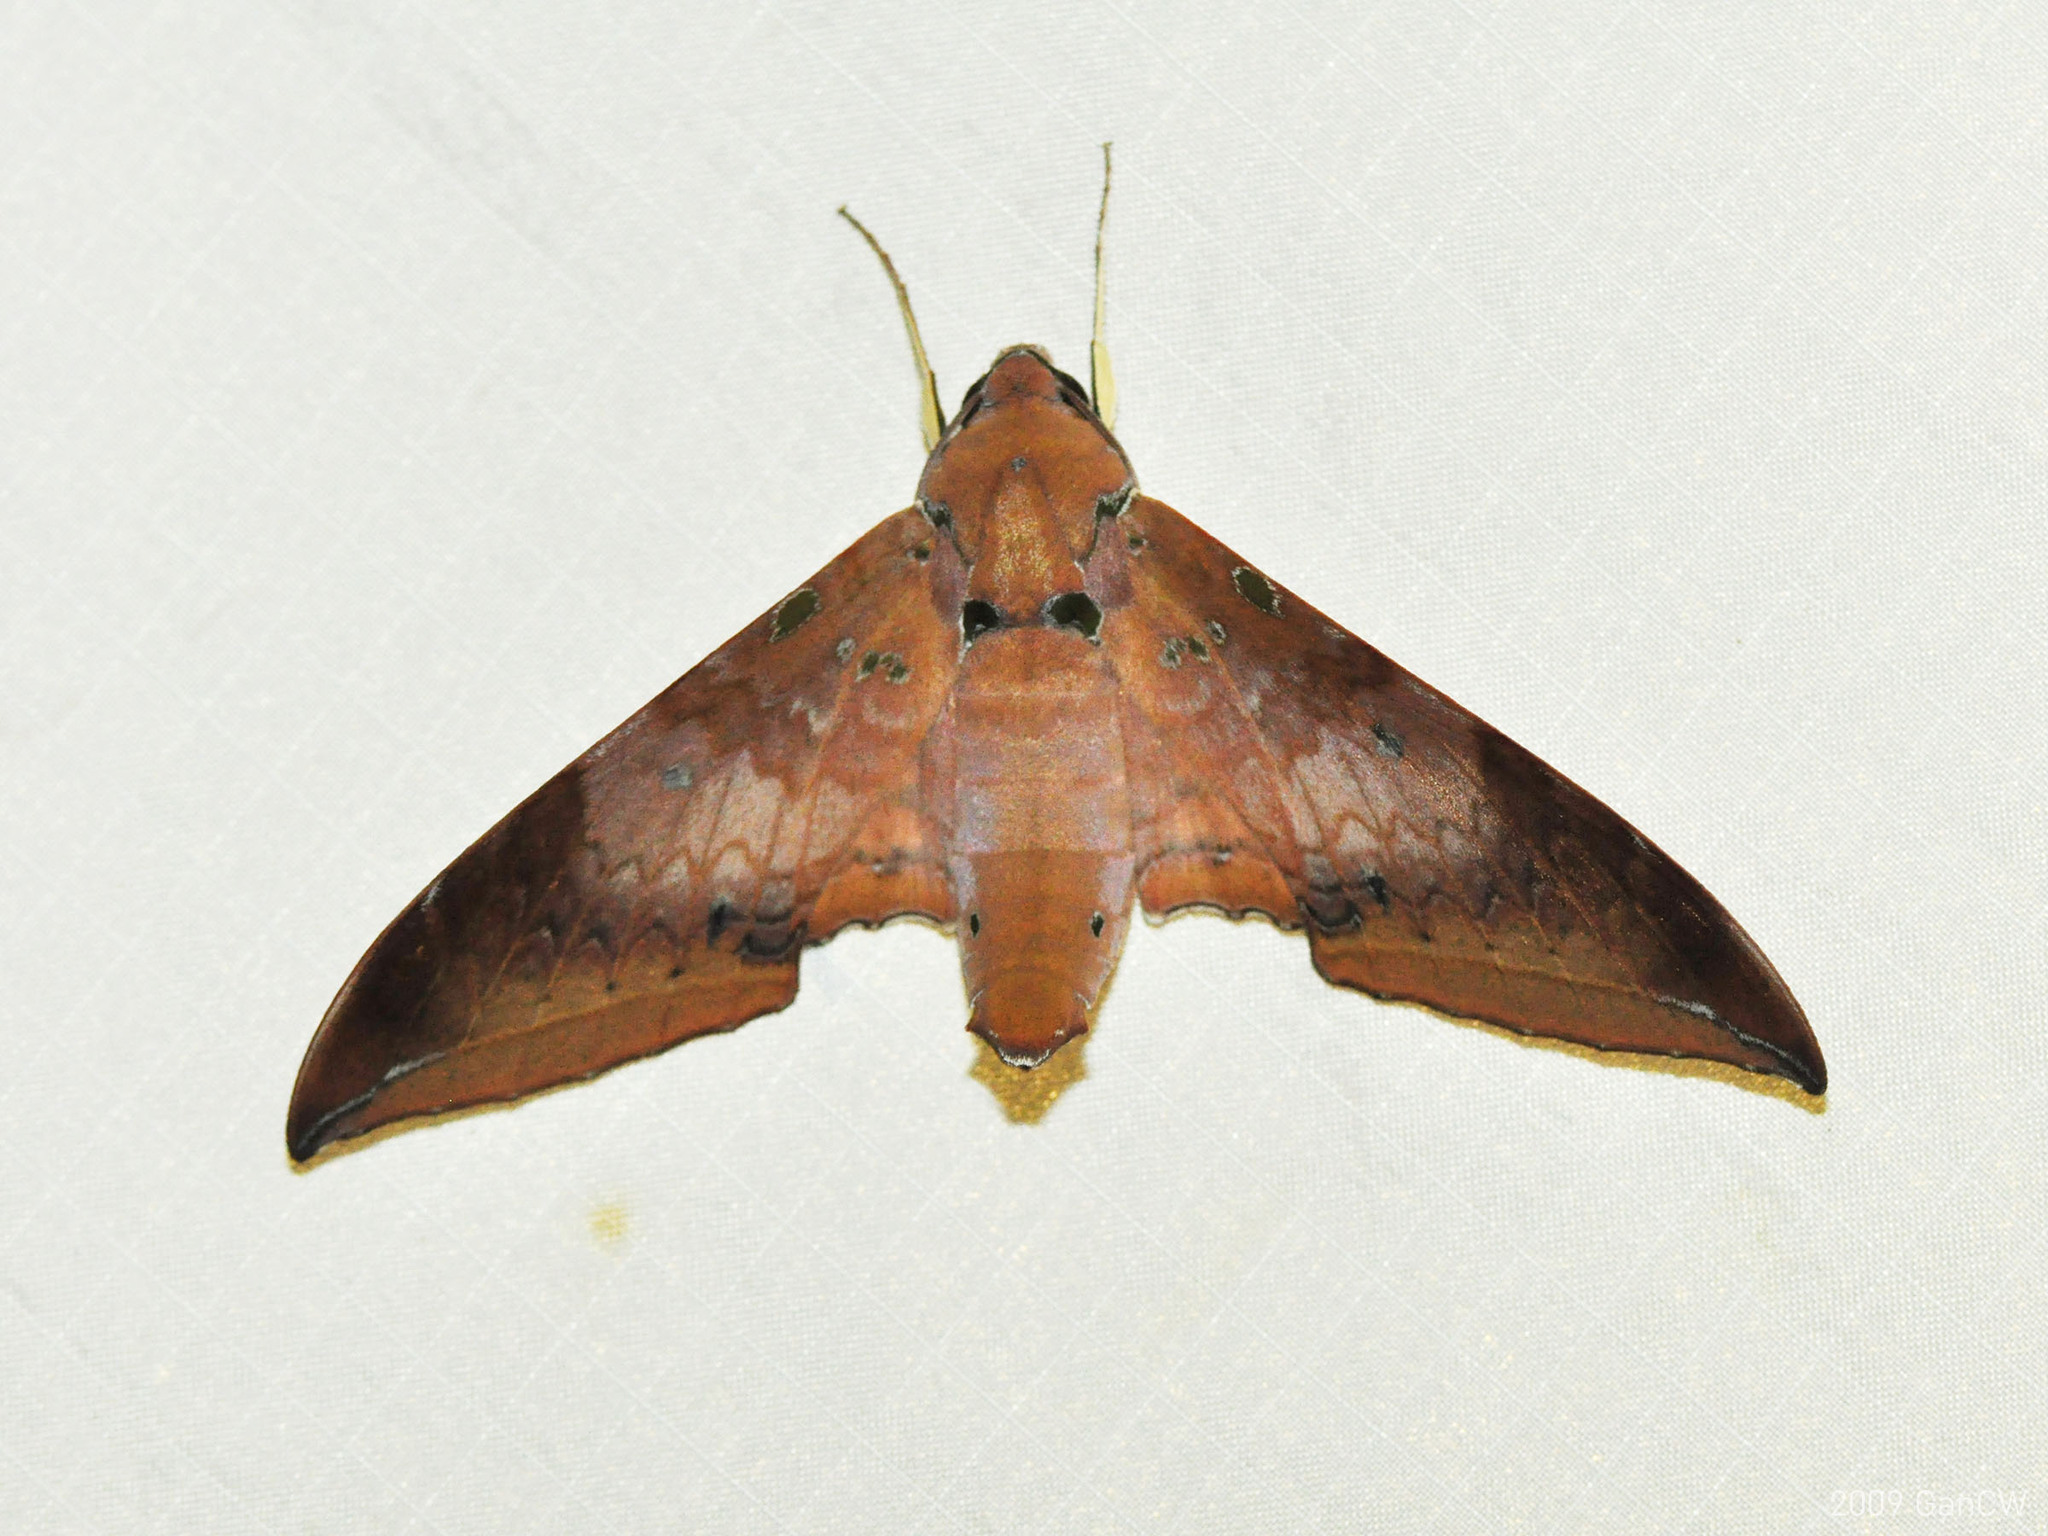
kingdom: Animalia
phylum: Arthropoda
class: Insecta
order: Lepidoptera
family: Sphingidae
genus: Ambulyx
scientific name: Ambulyx moorei
